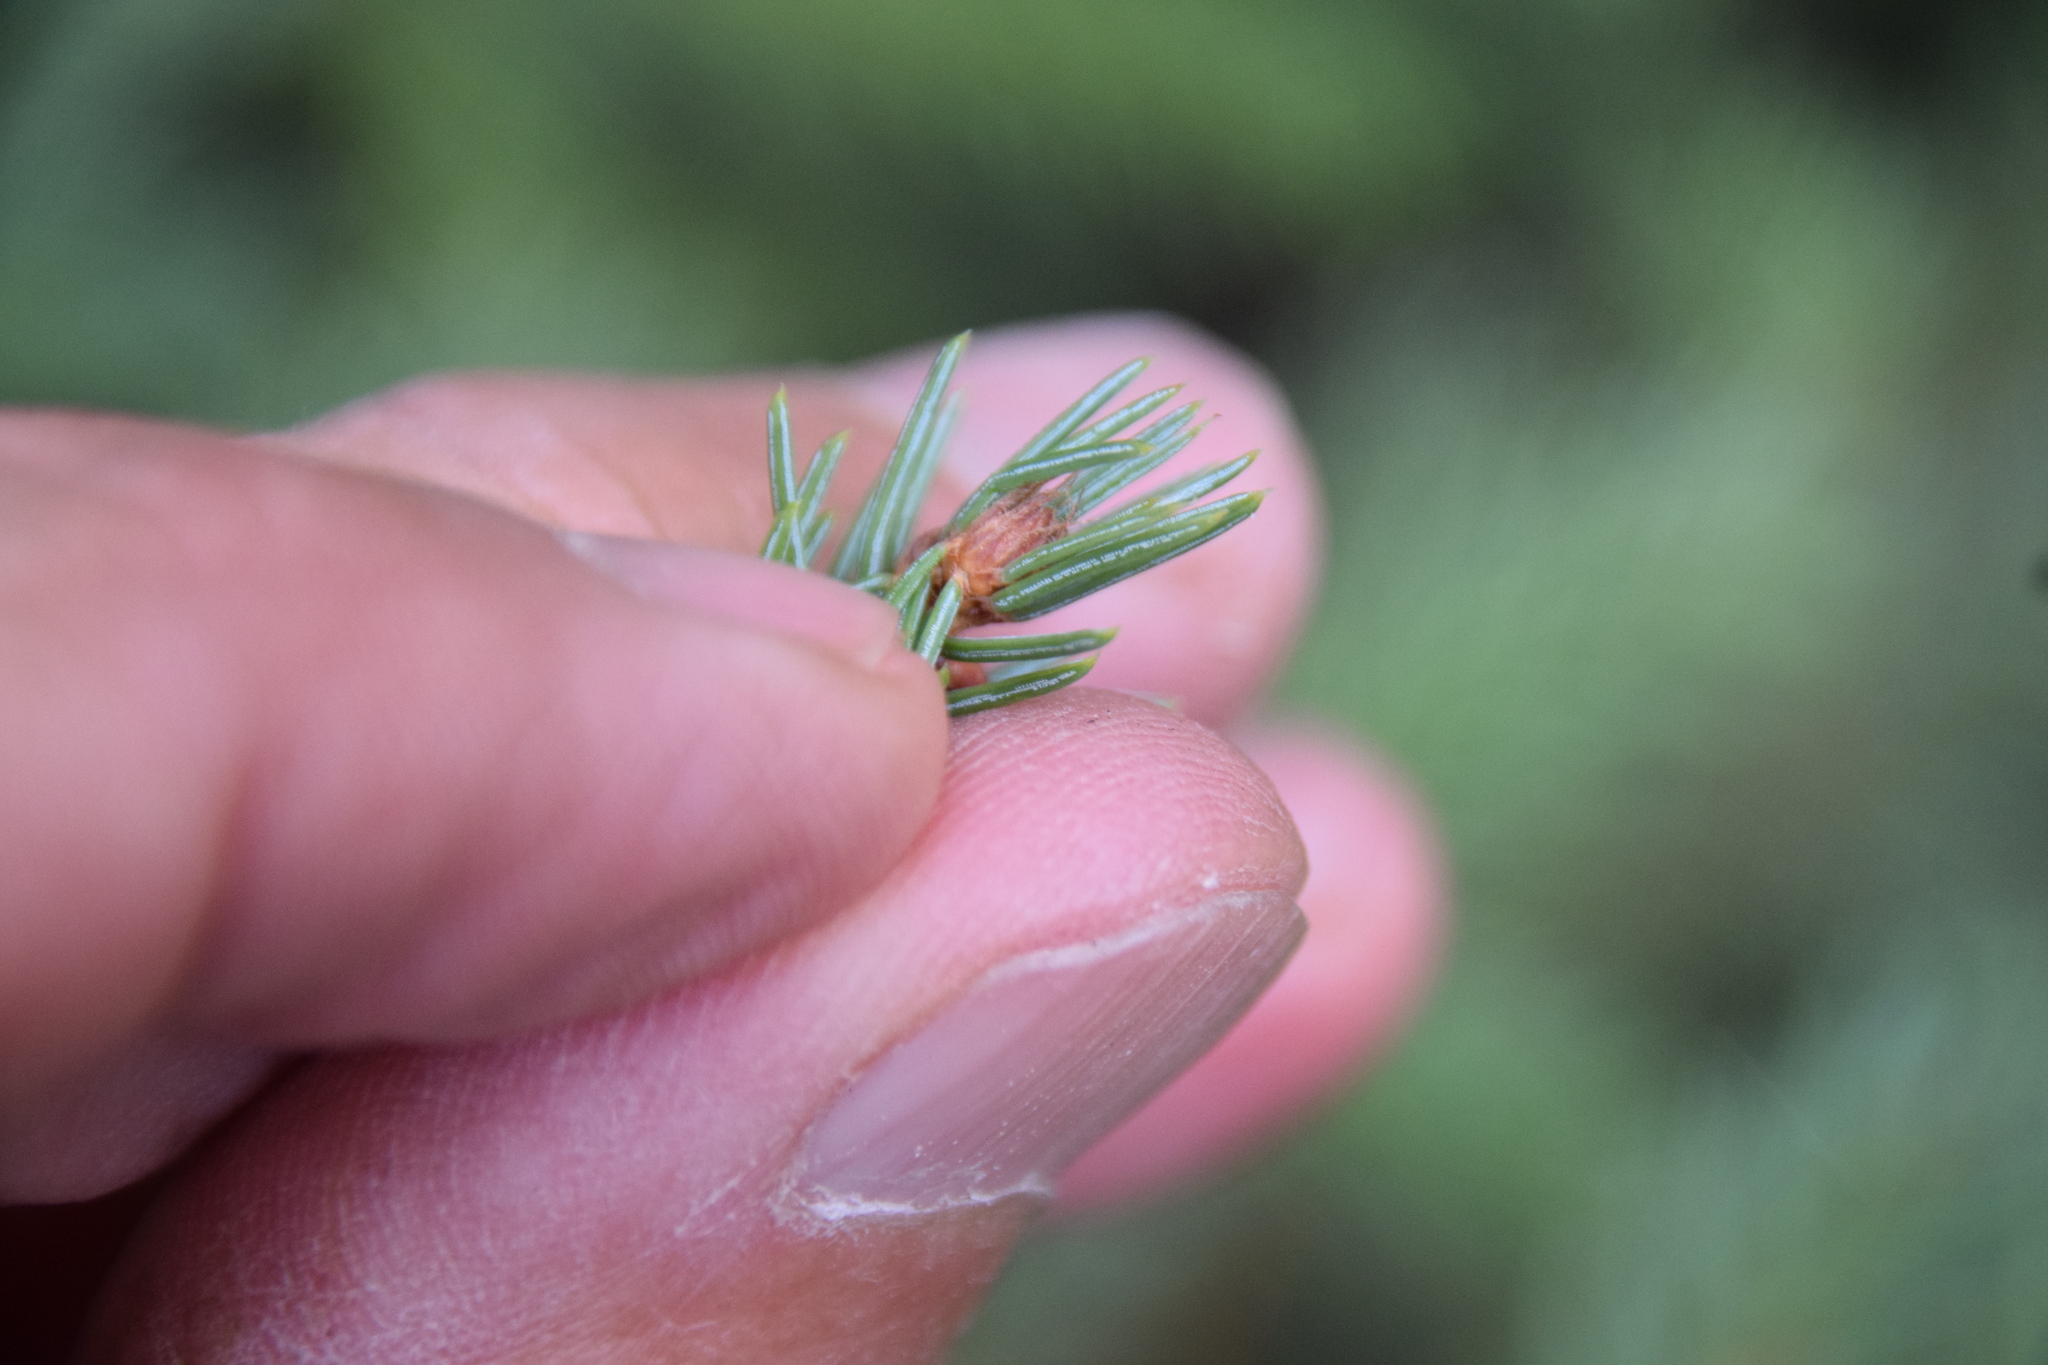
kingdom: Plantae
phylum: Tracheophyta
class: Pinopsida
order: Pinales
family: Pinaceae
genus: Picea
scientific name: Picea mariana
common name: Black spruce
